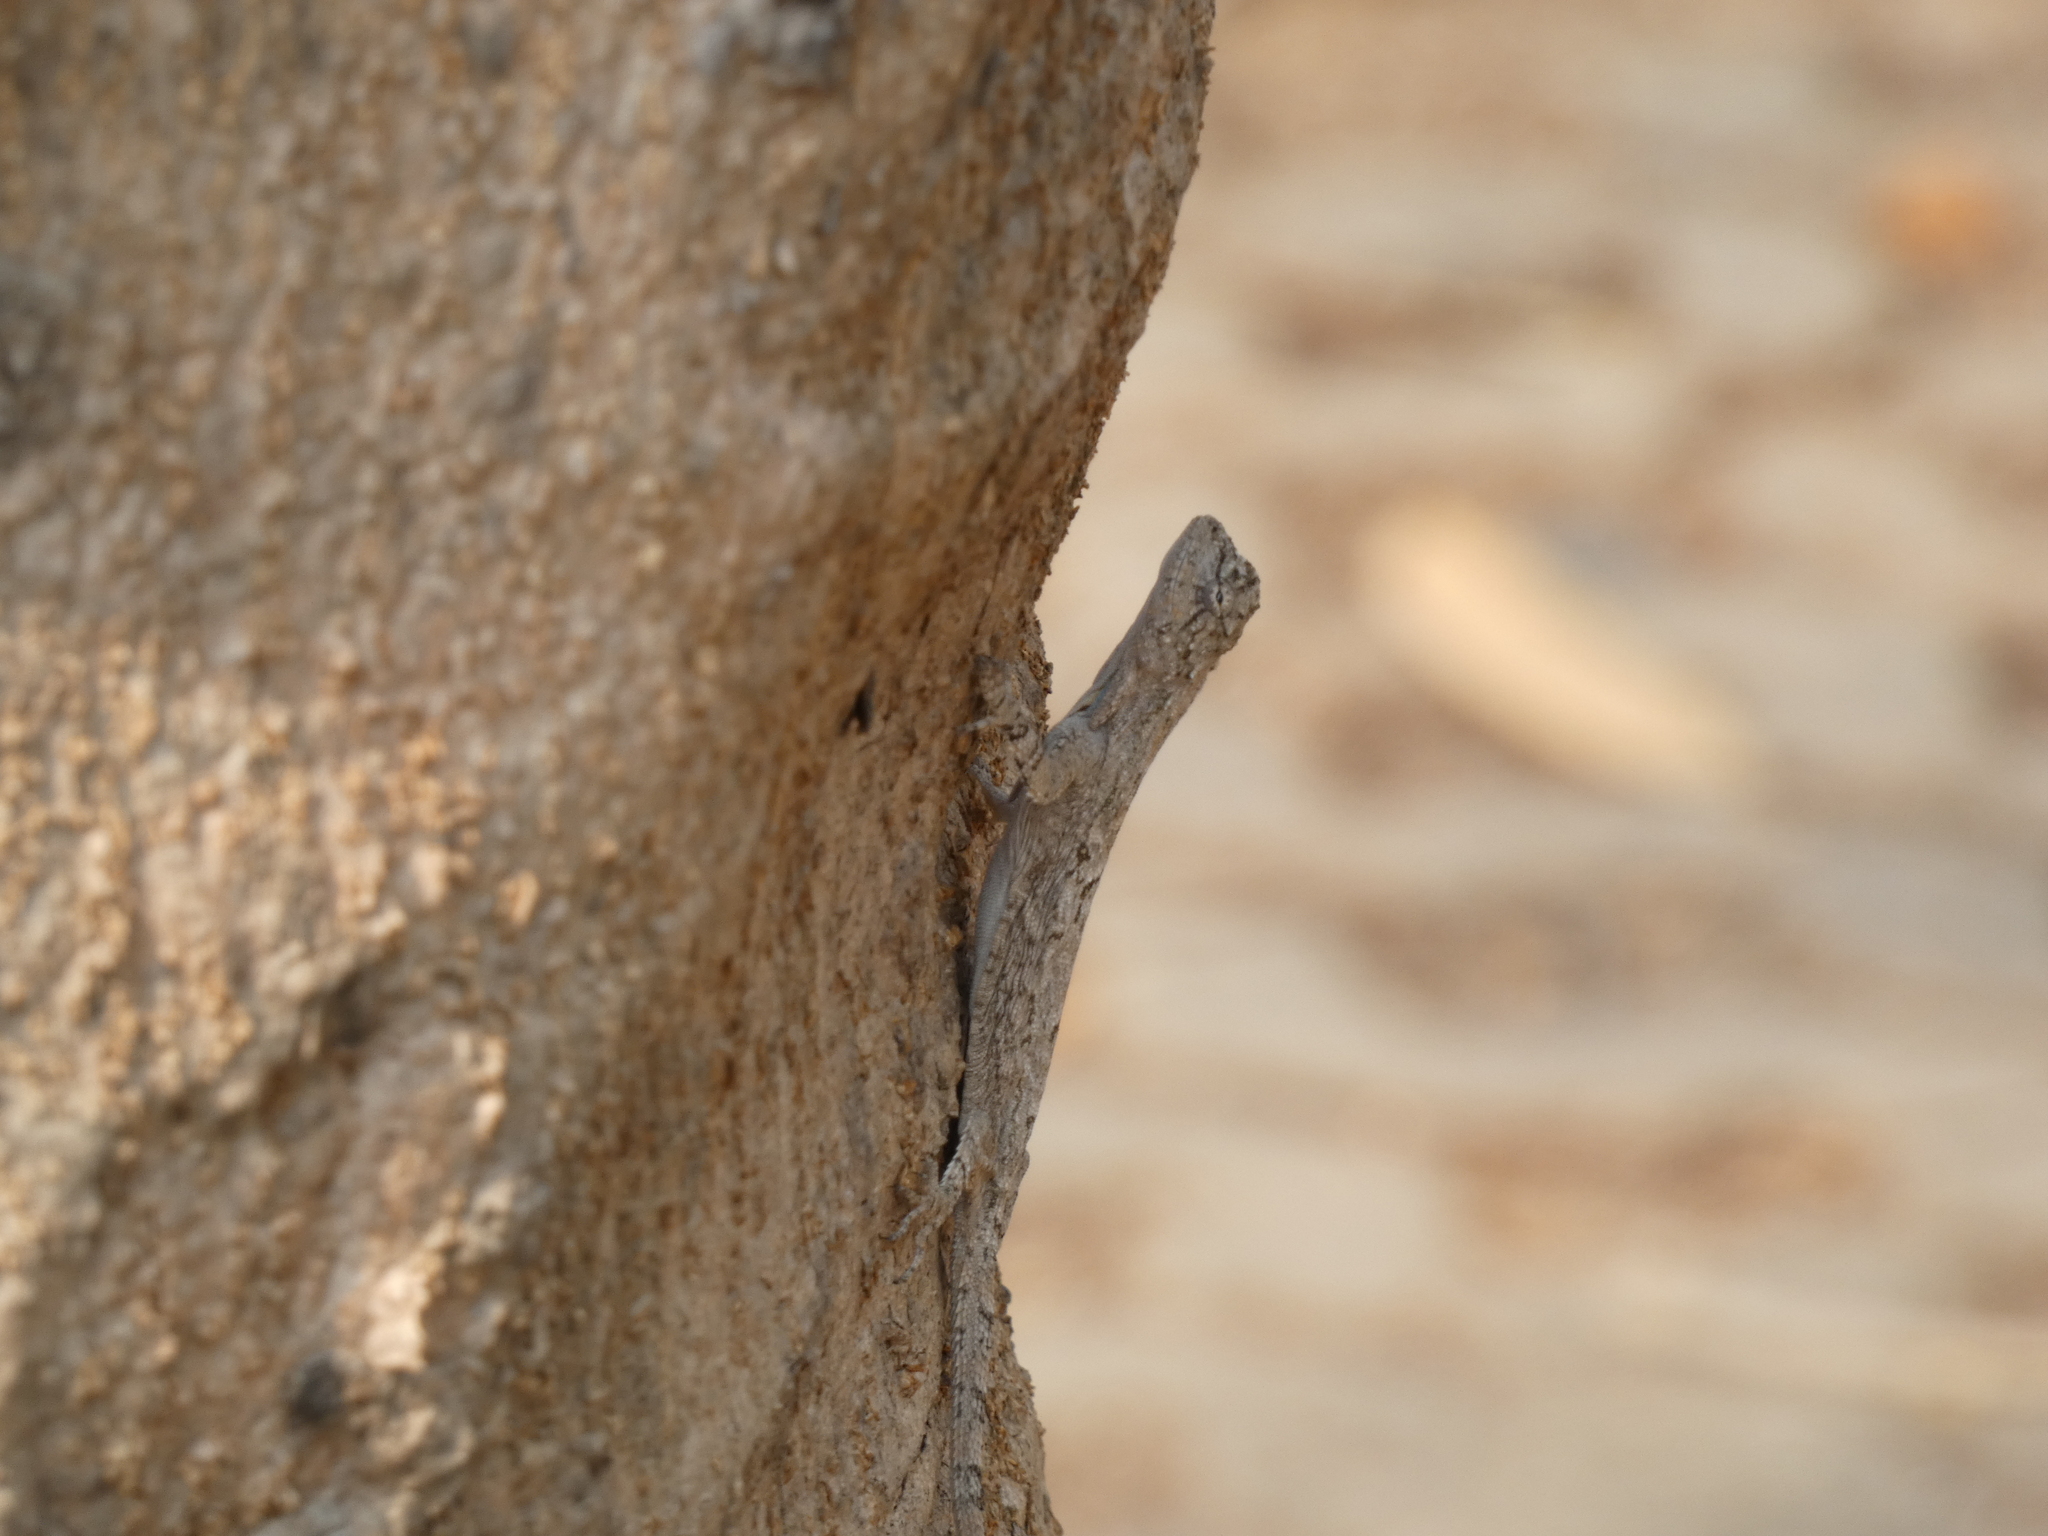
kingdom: Animalia
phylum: Chordata
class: Squamata
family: Agamidae
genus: Draco
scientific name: Draco maculatus
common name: Spotted flying dragon
